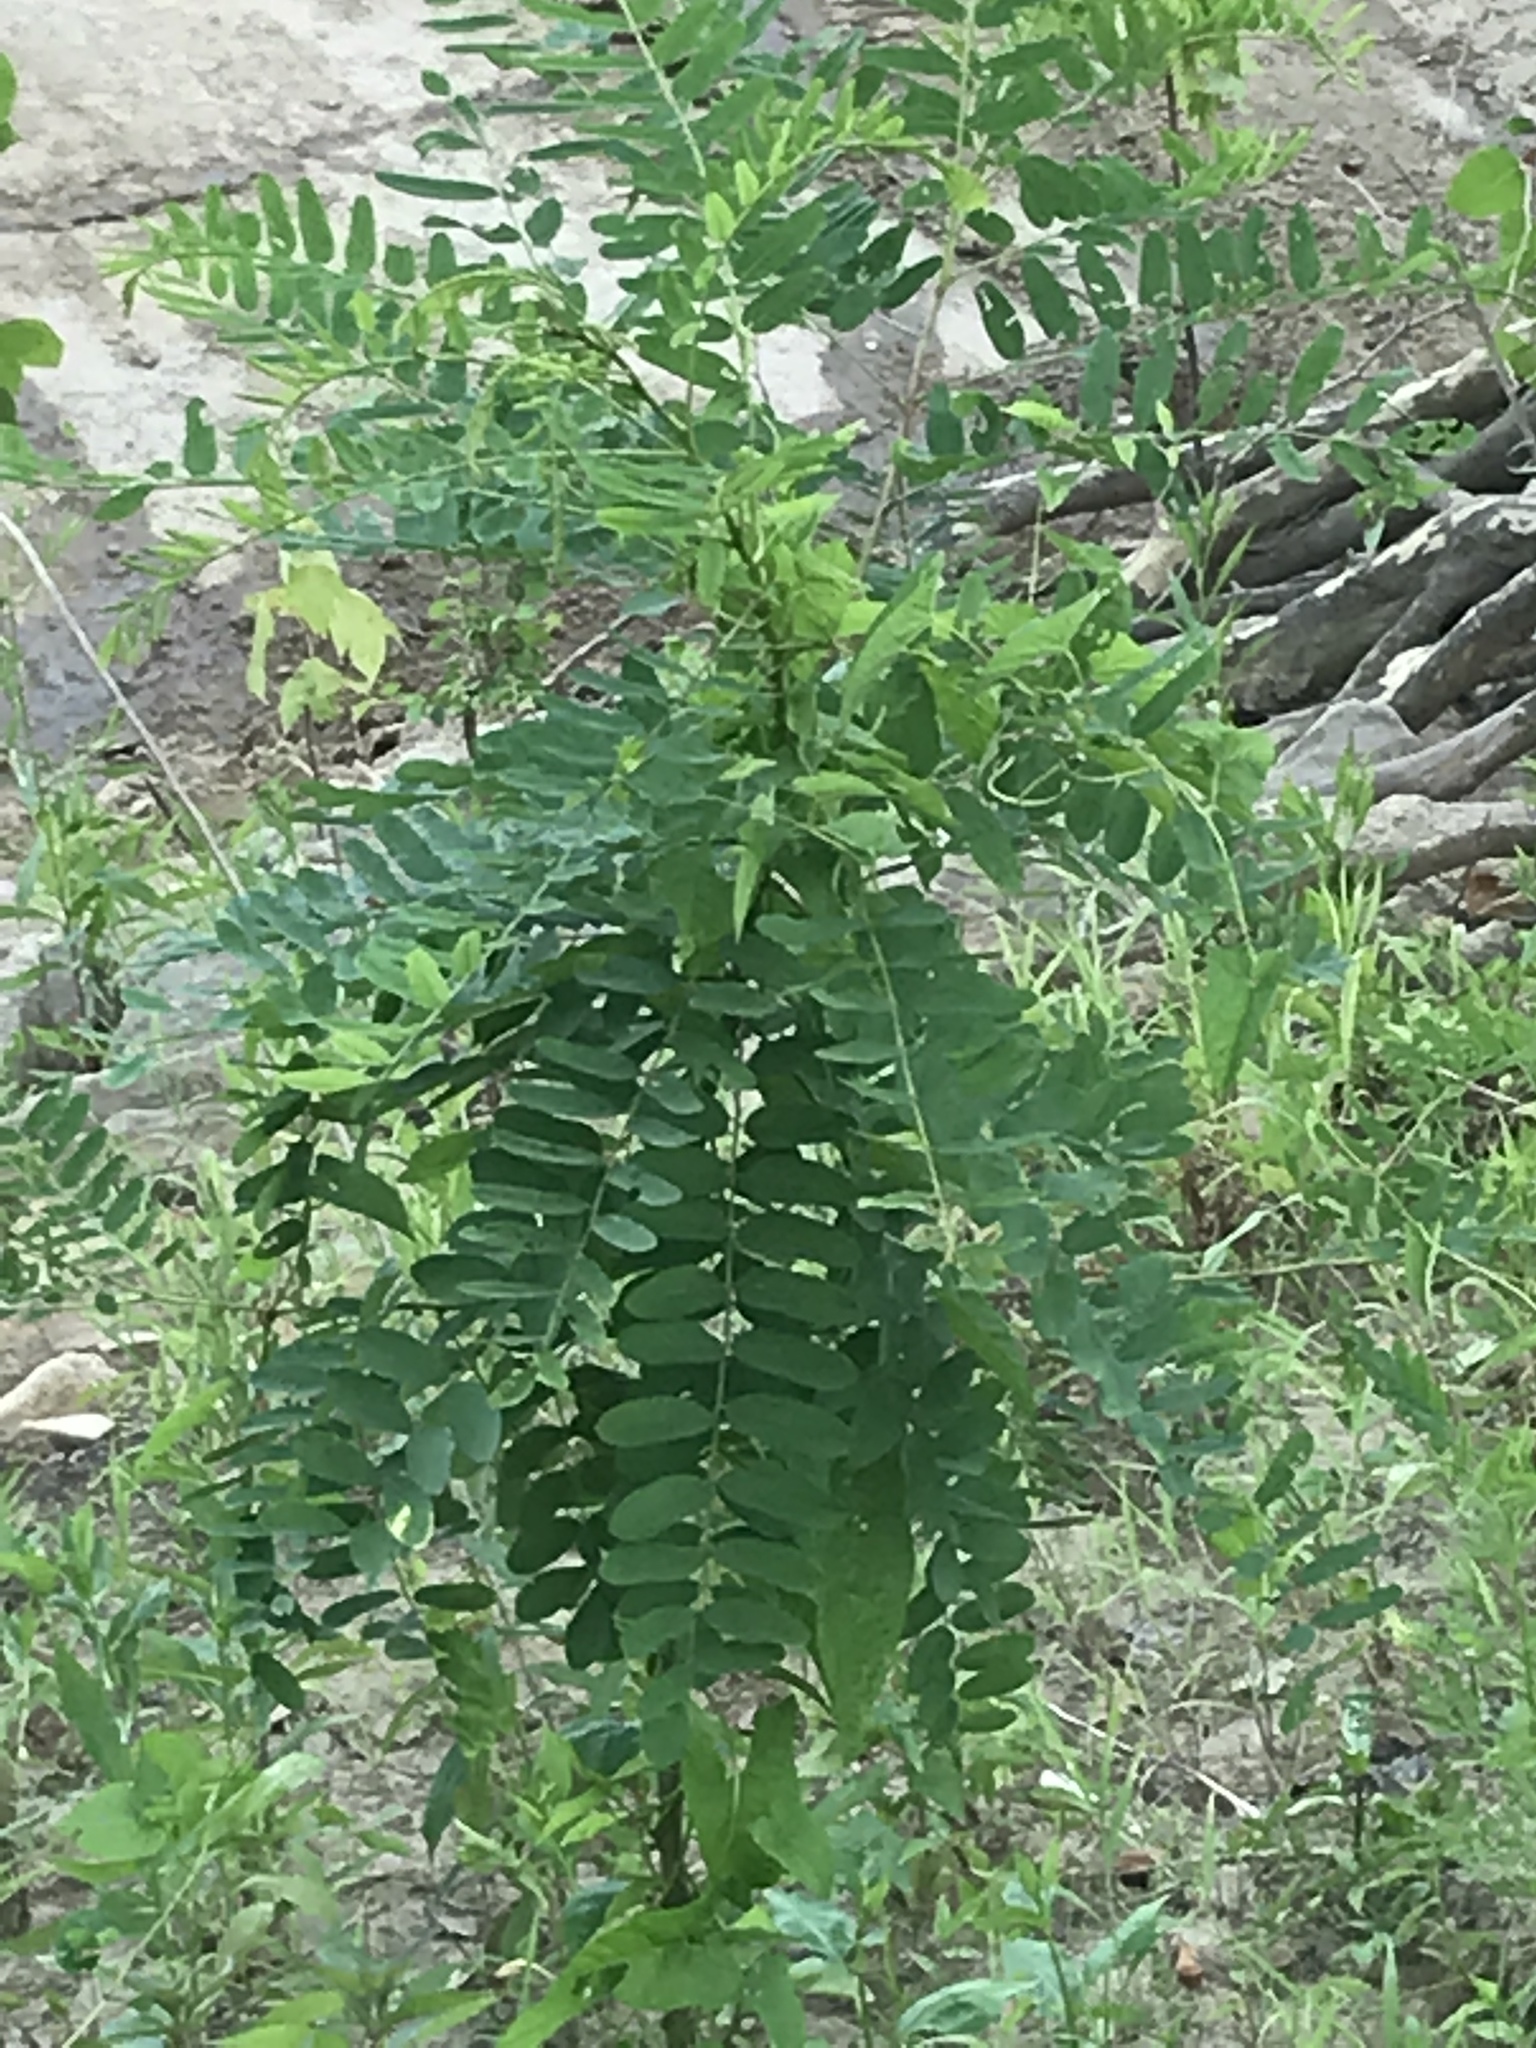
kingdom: Plantae
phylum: Tracheophyta
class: Magnoliopsida
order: Fabales
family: Fabaceae
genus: Robinia
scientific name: Robinia pseudoacacia
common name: Black locust
